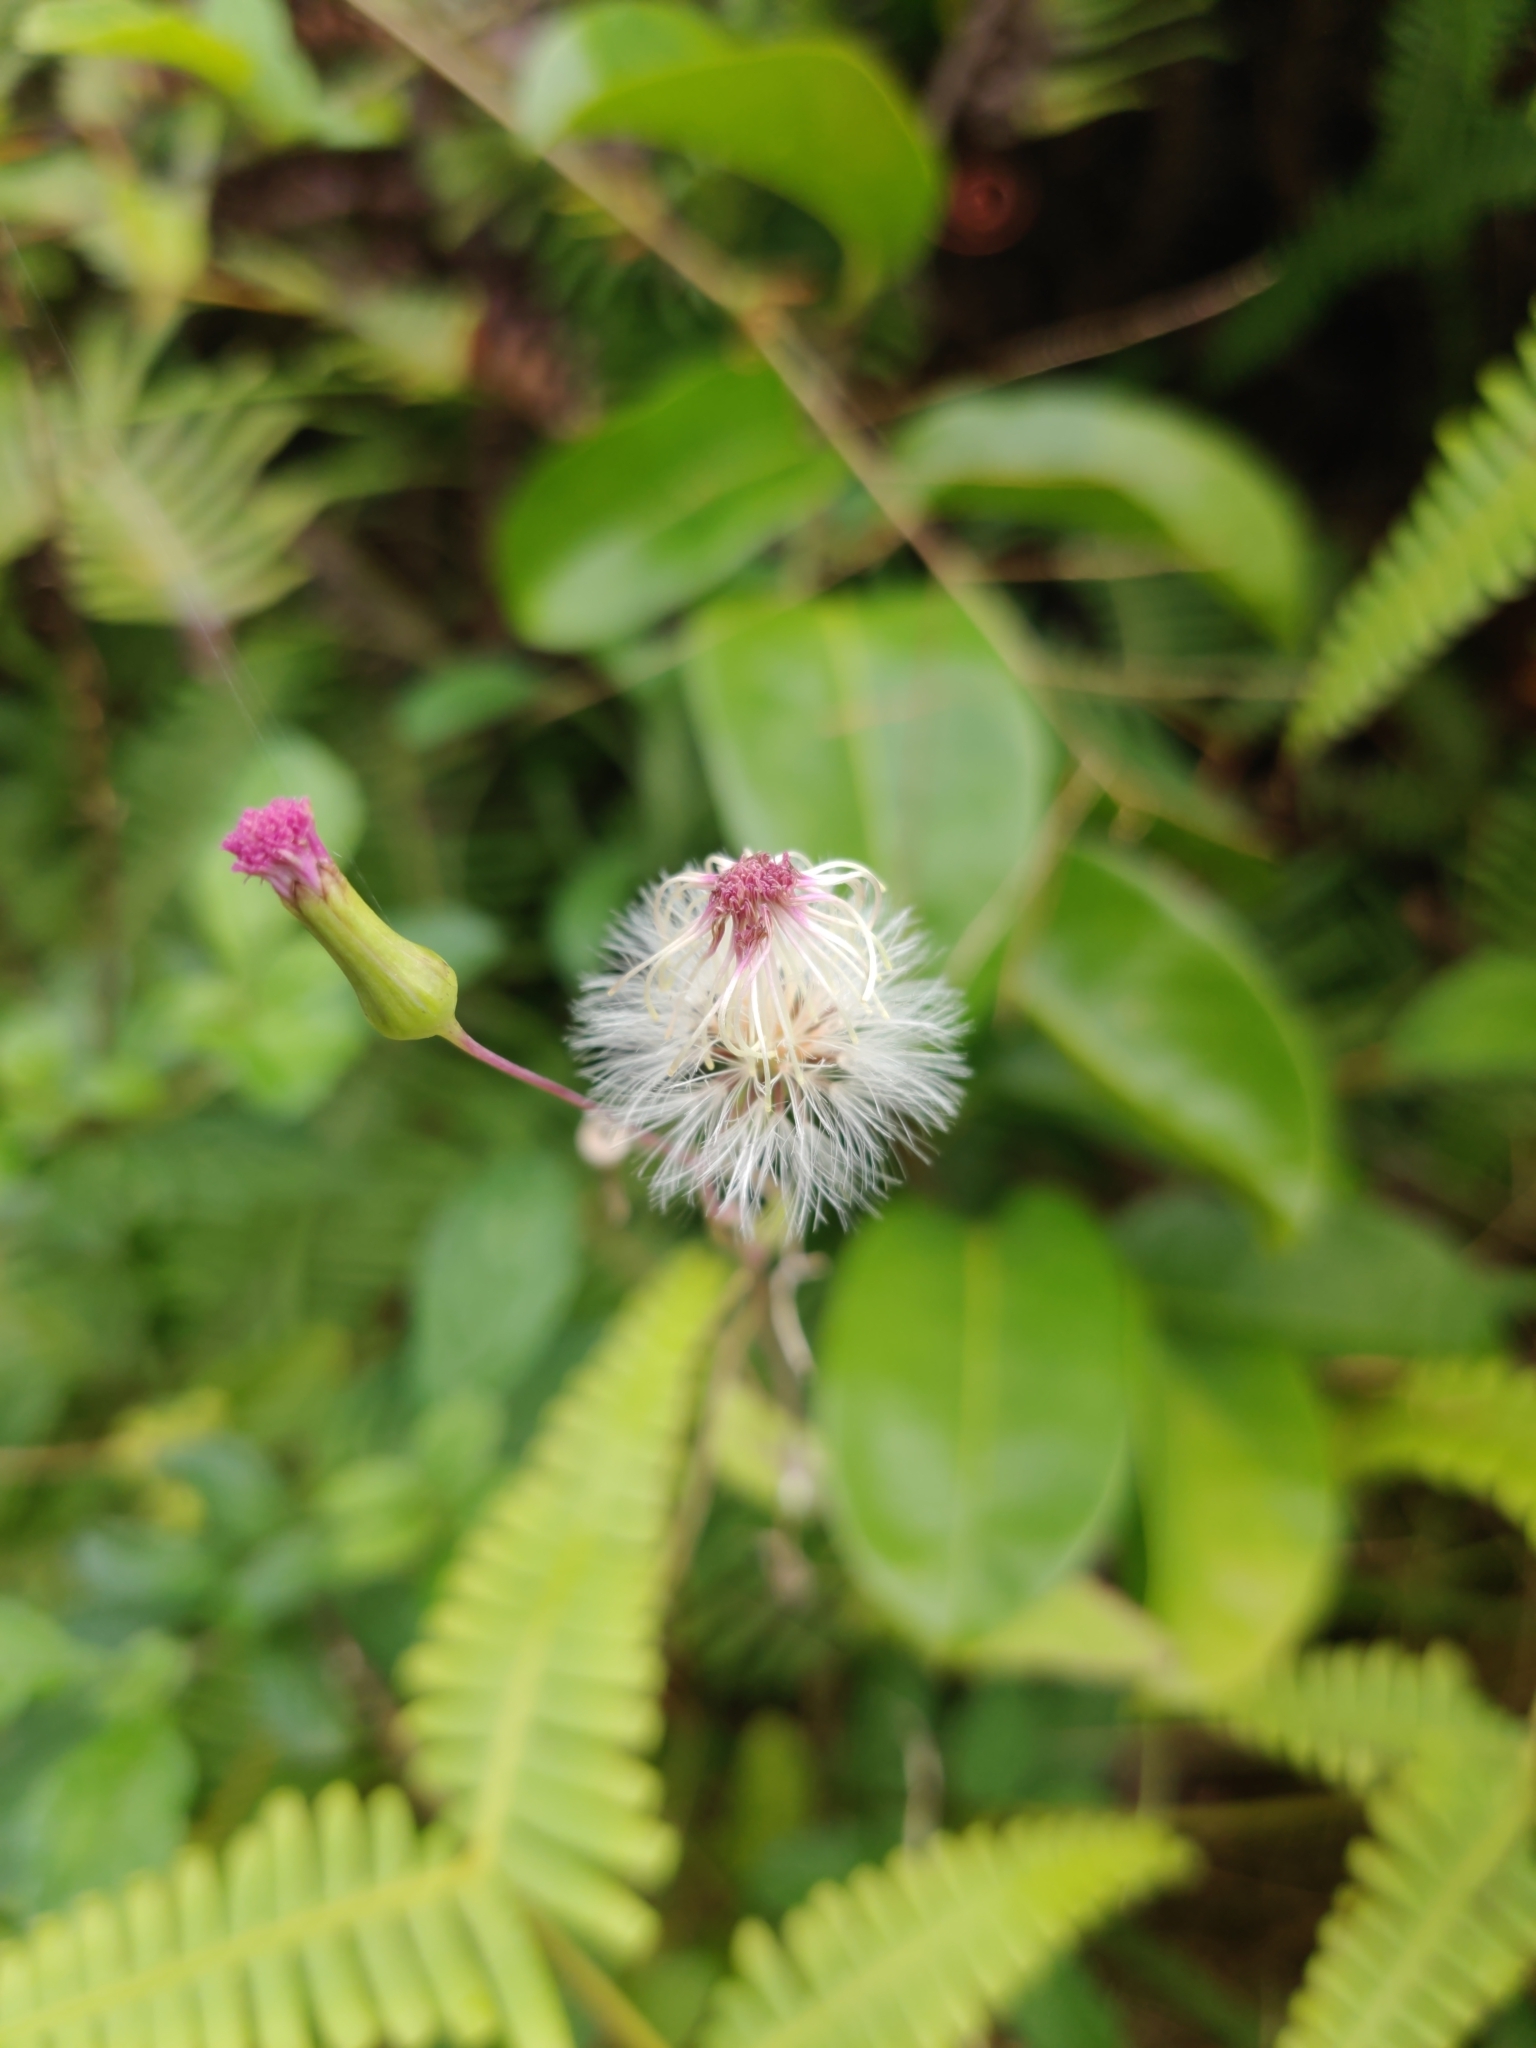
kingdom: Plantae
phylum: Tracheophyta
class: Magnoliopsida
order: Asterales
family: Asteraceae
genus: Emilia
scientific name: Emilia sonchifolia
